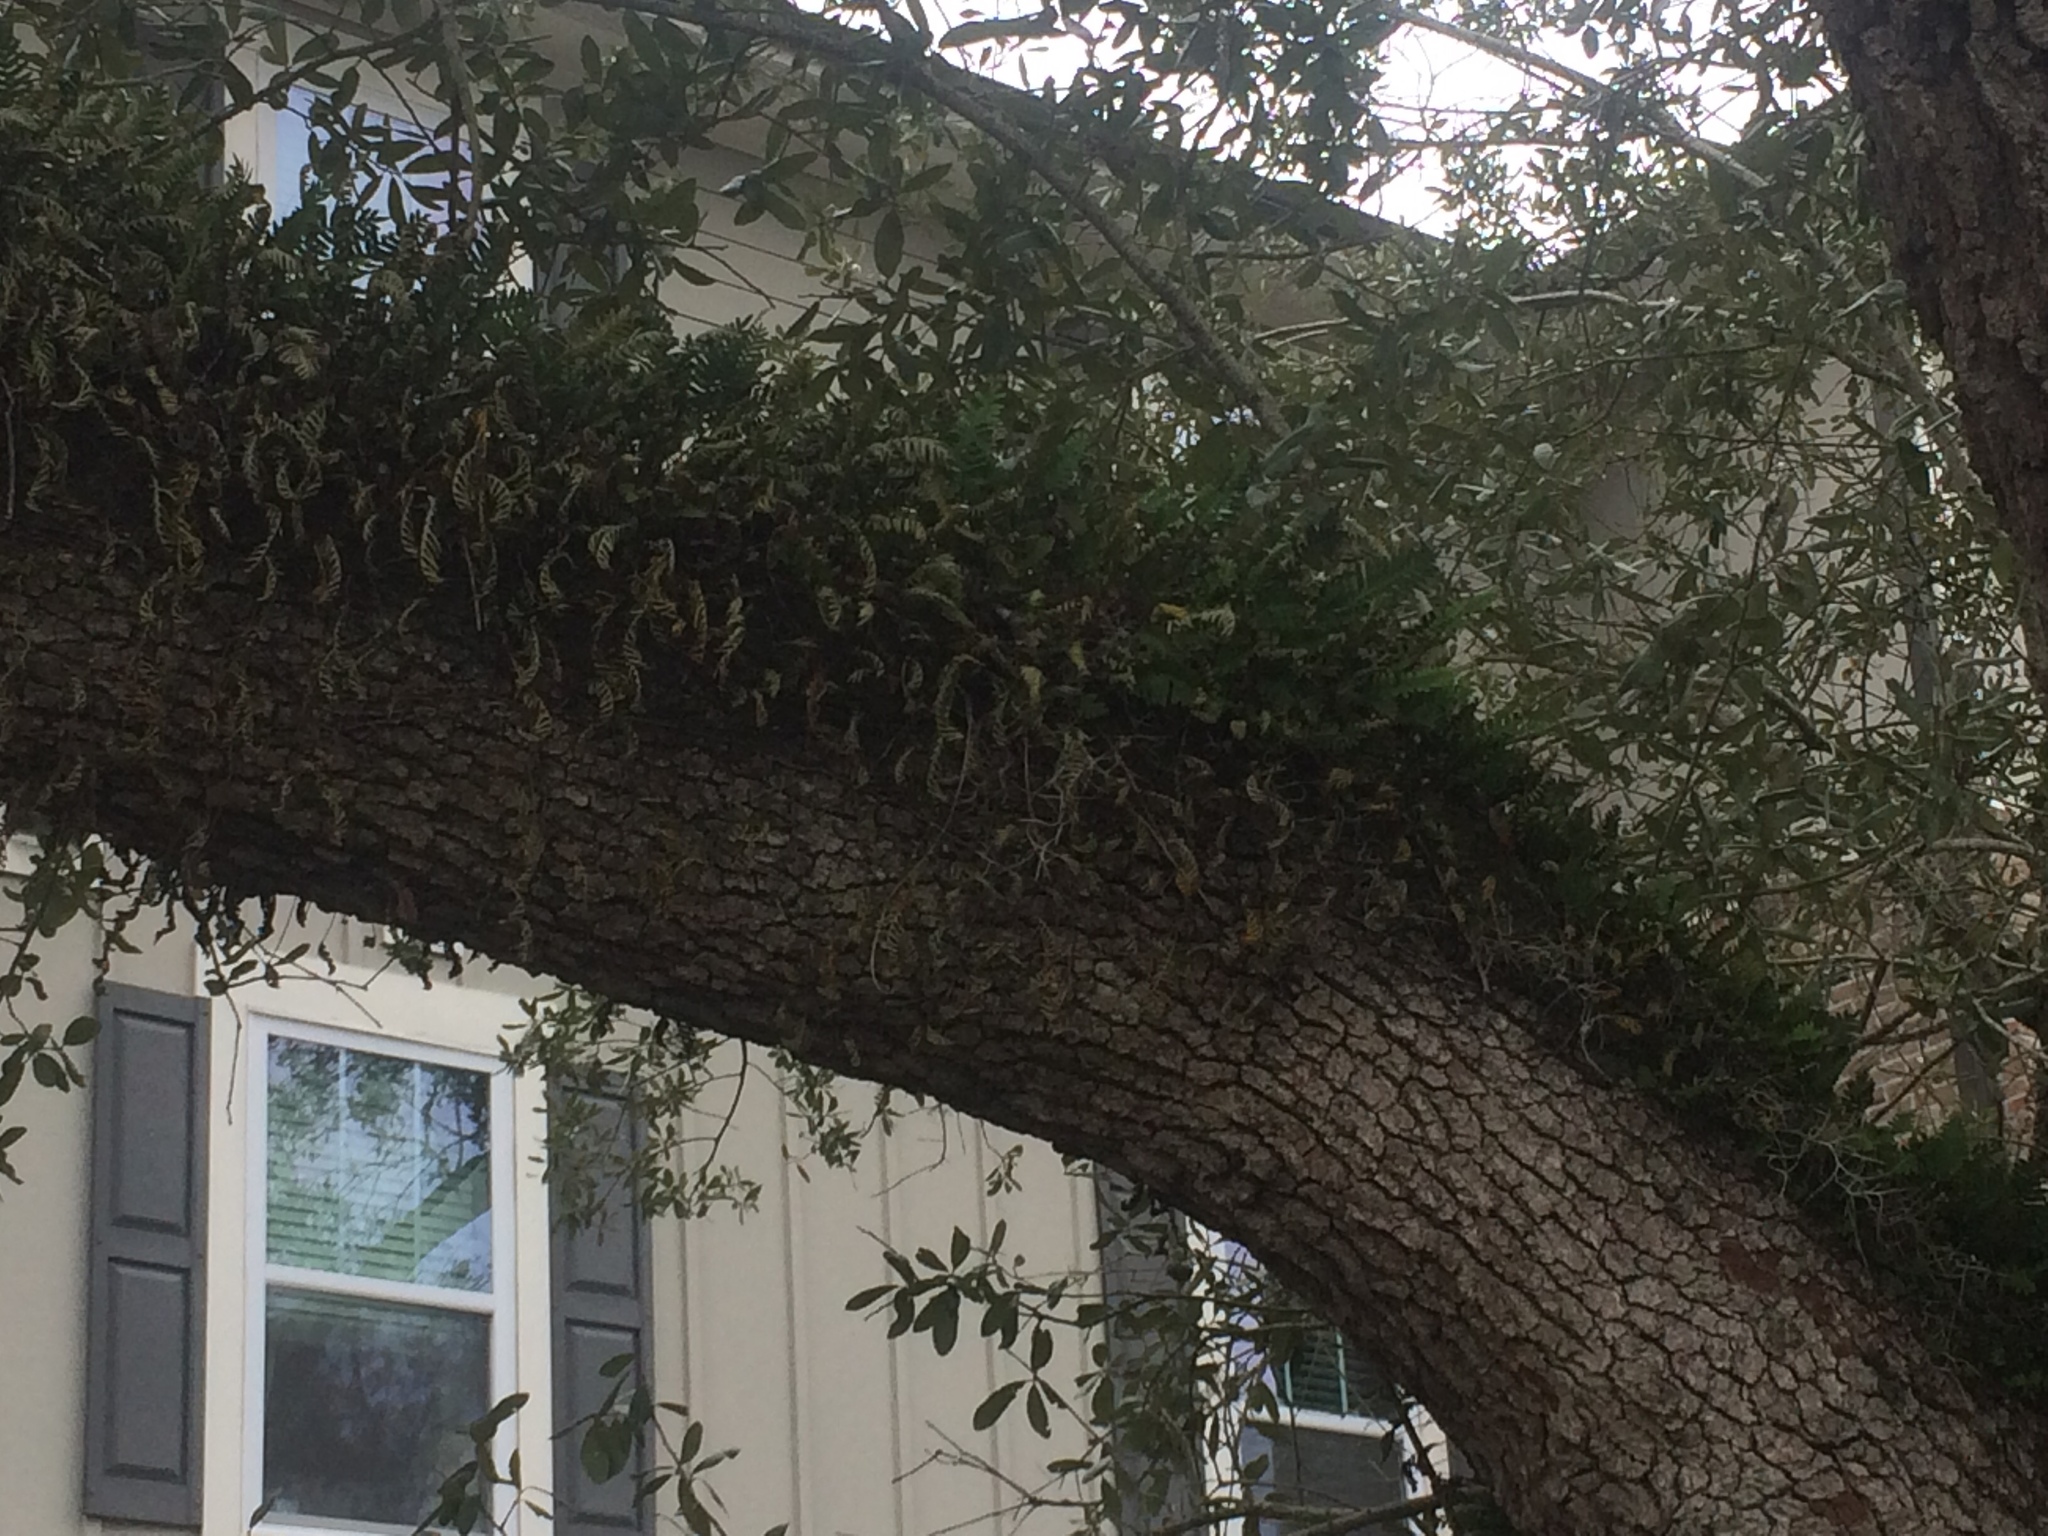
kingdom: Plantae
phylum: Tracheophyta
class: Polypodiopsida
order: Polypodiales
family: Polypodiaceae
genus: Pleopeltis
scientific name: Pleopeltis michauxiana
